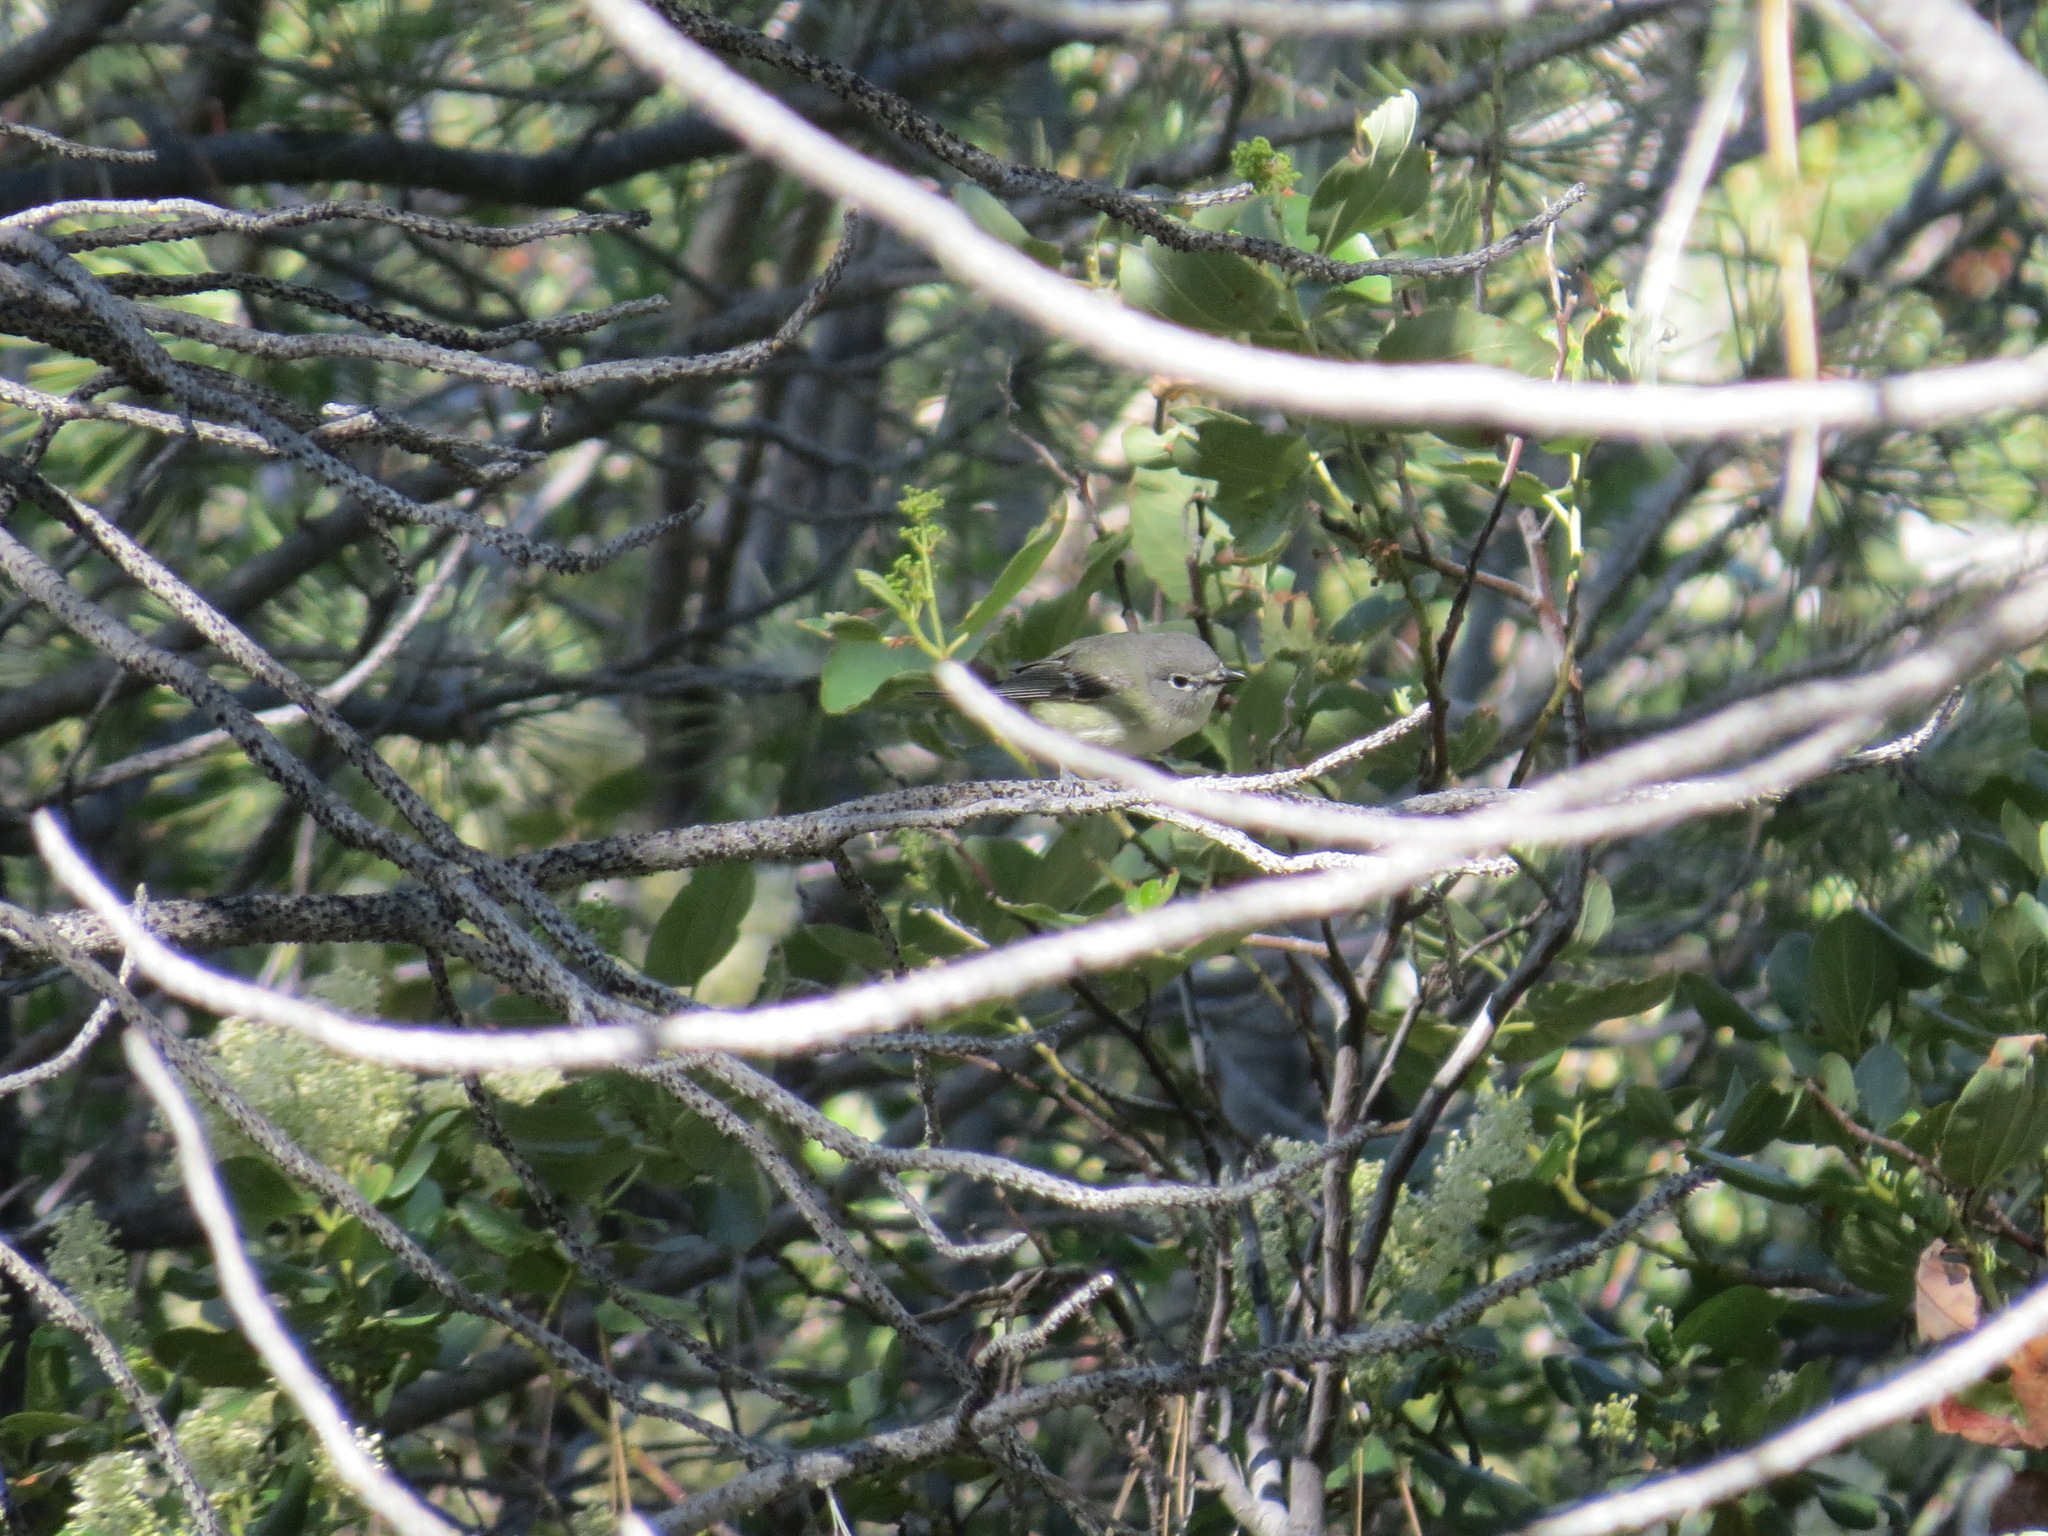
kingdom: Animalia
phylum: Chordata
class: Aves
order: Passeriformes
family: Vireonidae
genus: Vireo
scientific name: Vireo cassinii
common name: Cassin's vireo
